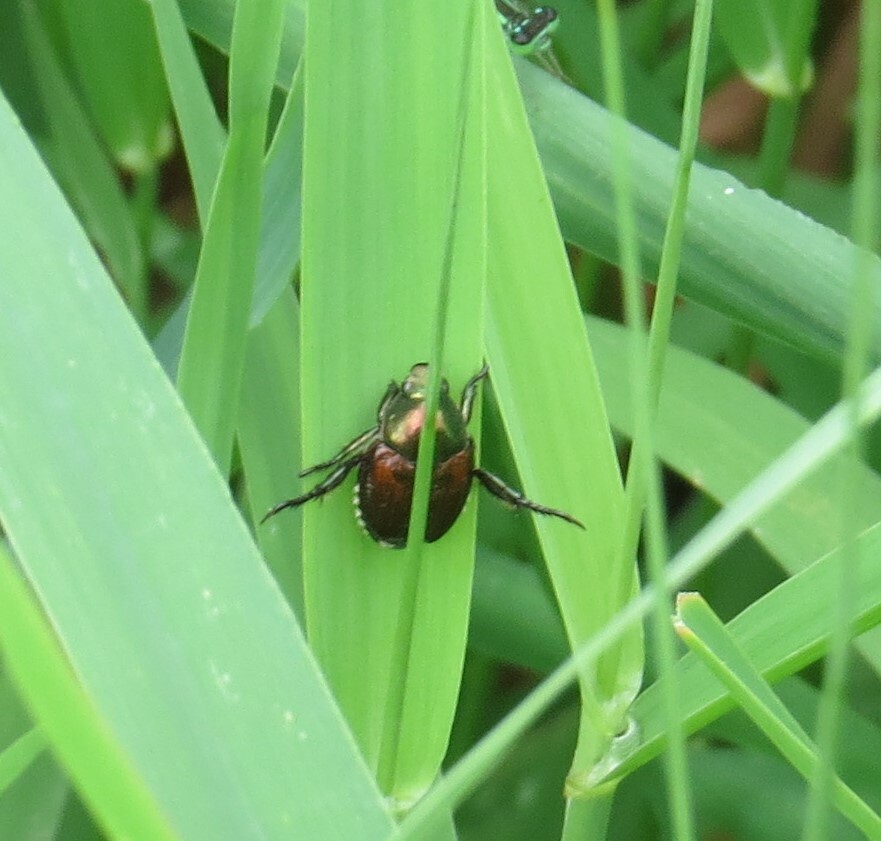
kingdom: Animalia
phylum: Arthropoda
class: Insecta
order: Coleoptera
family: Scarabaeidae
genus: Popillia
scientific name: Popillia japonica
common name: Japanese beetle
